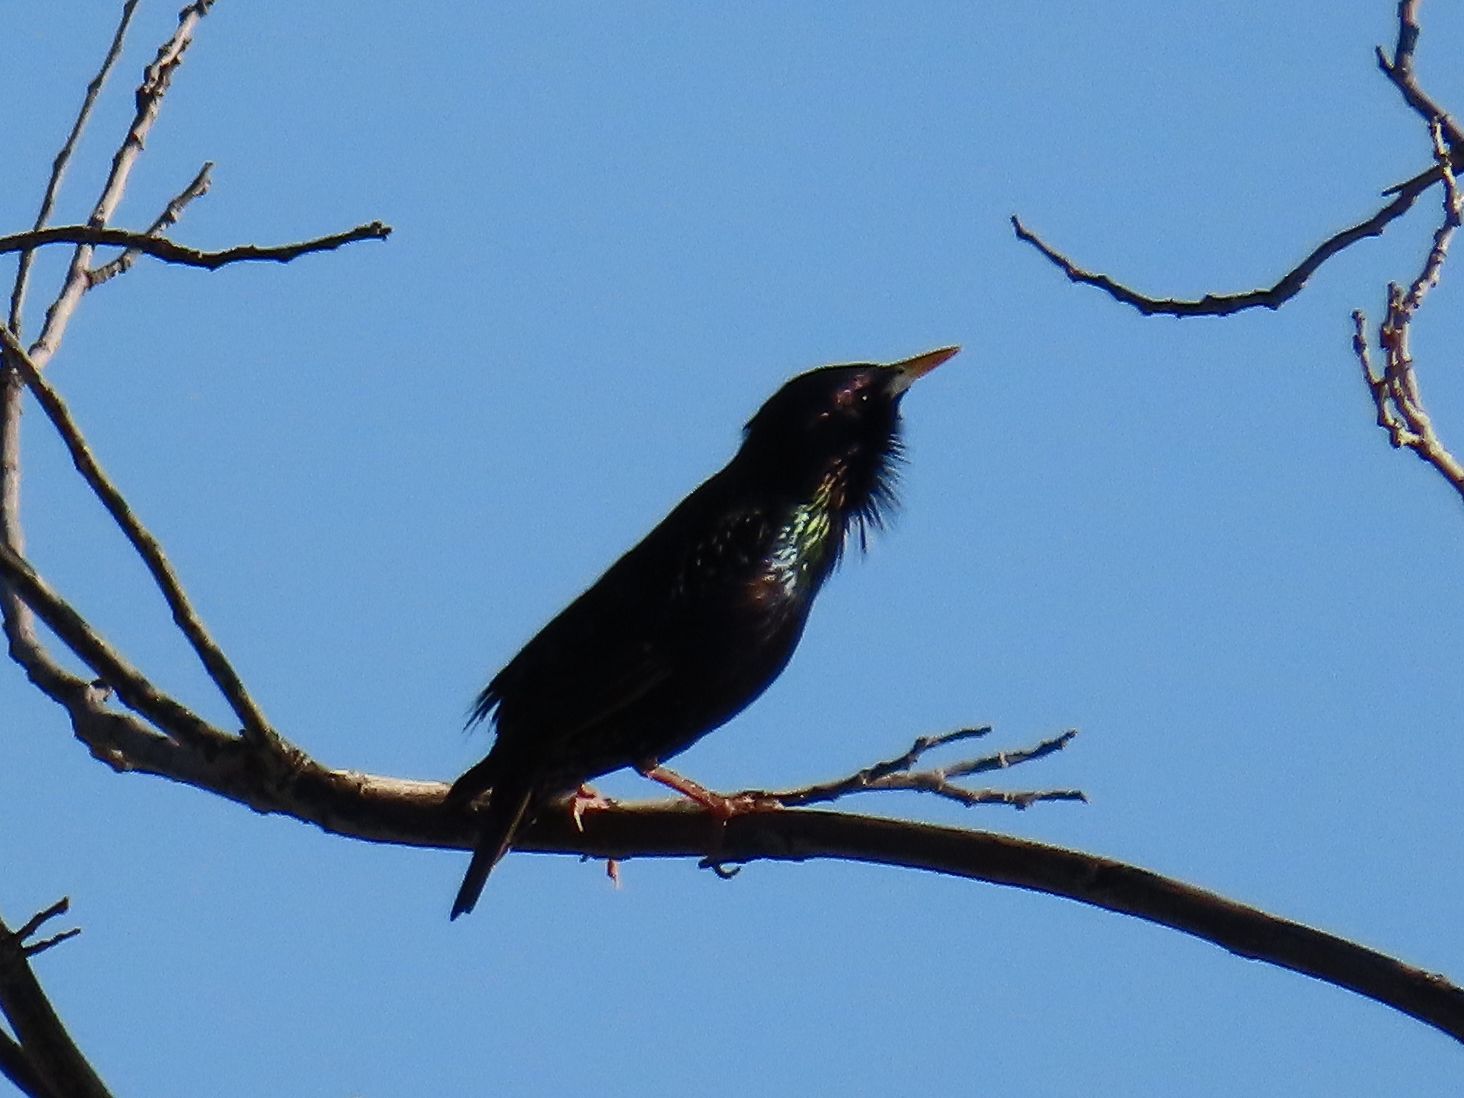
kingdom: Animalia
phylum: Chordata
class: Aves
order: Passeriformes
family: Sturnidae
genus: Sturnus
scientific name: Sturnus vulgaris
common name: Common starling
